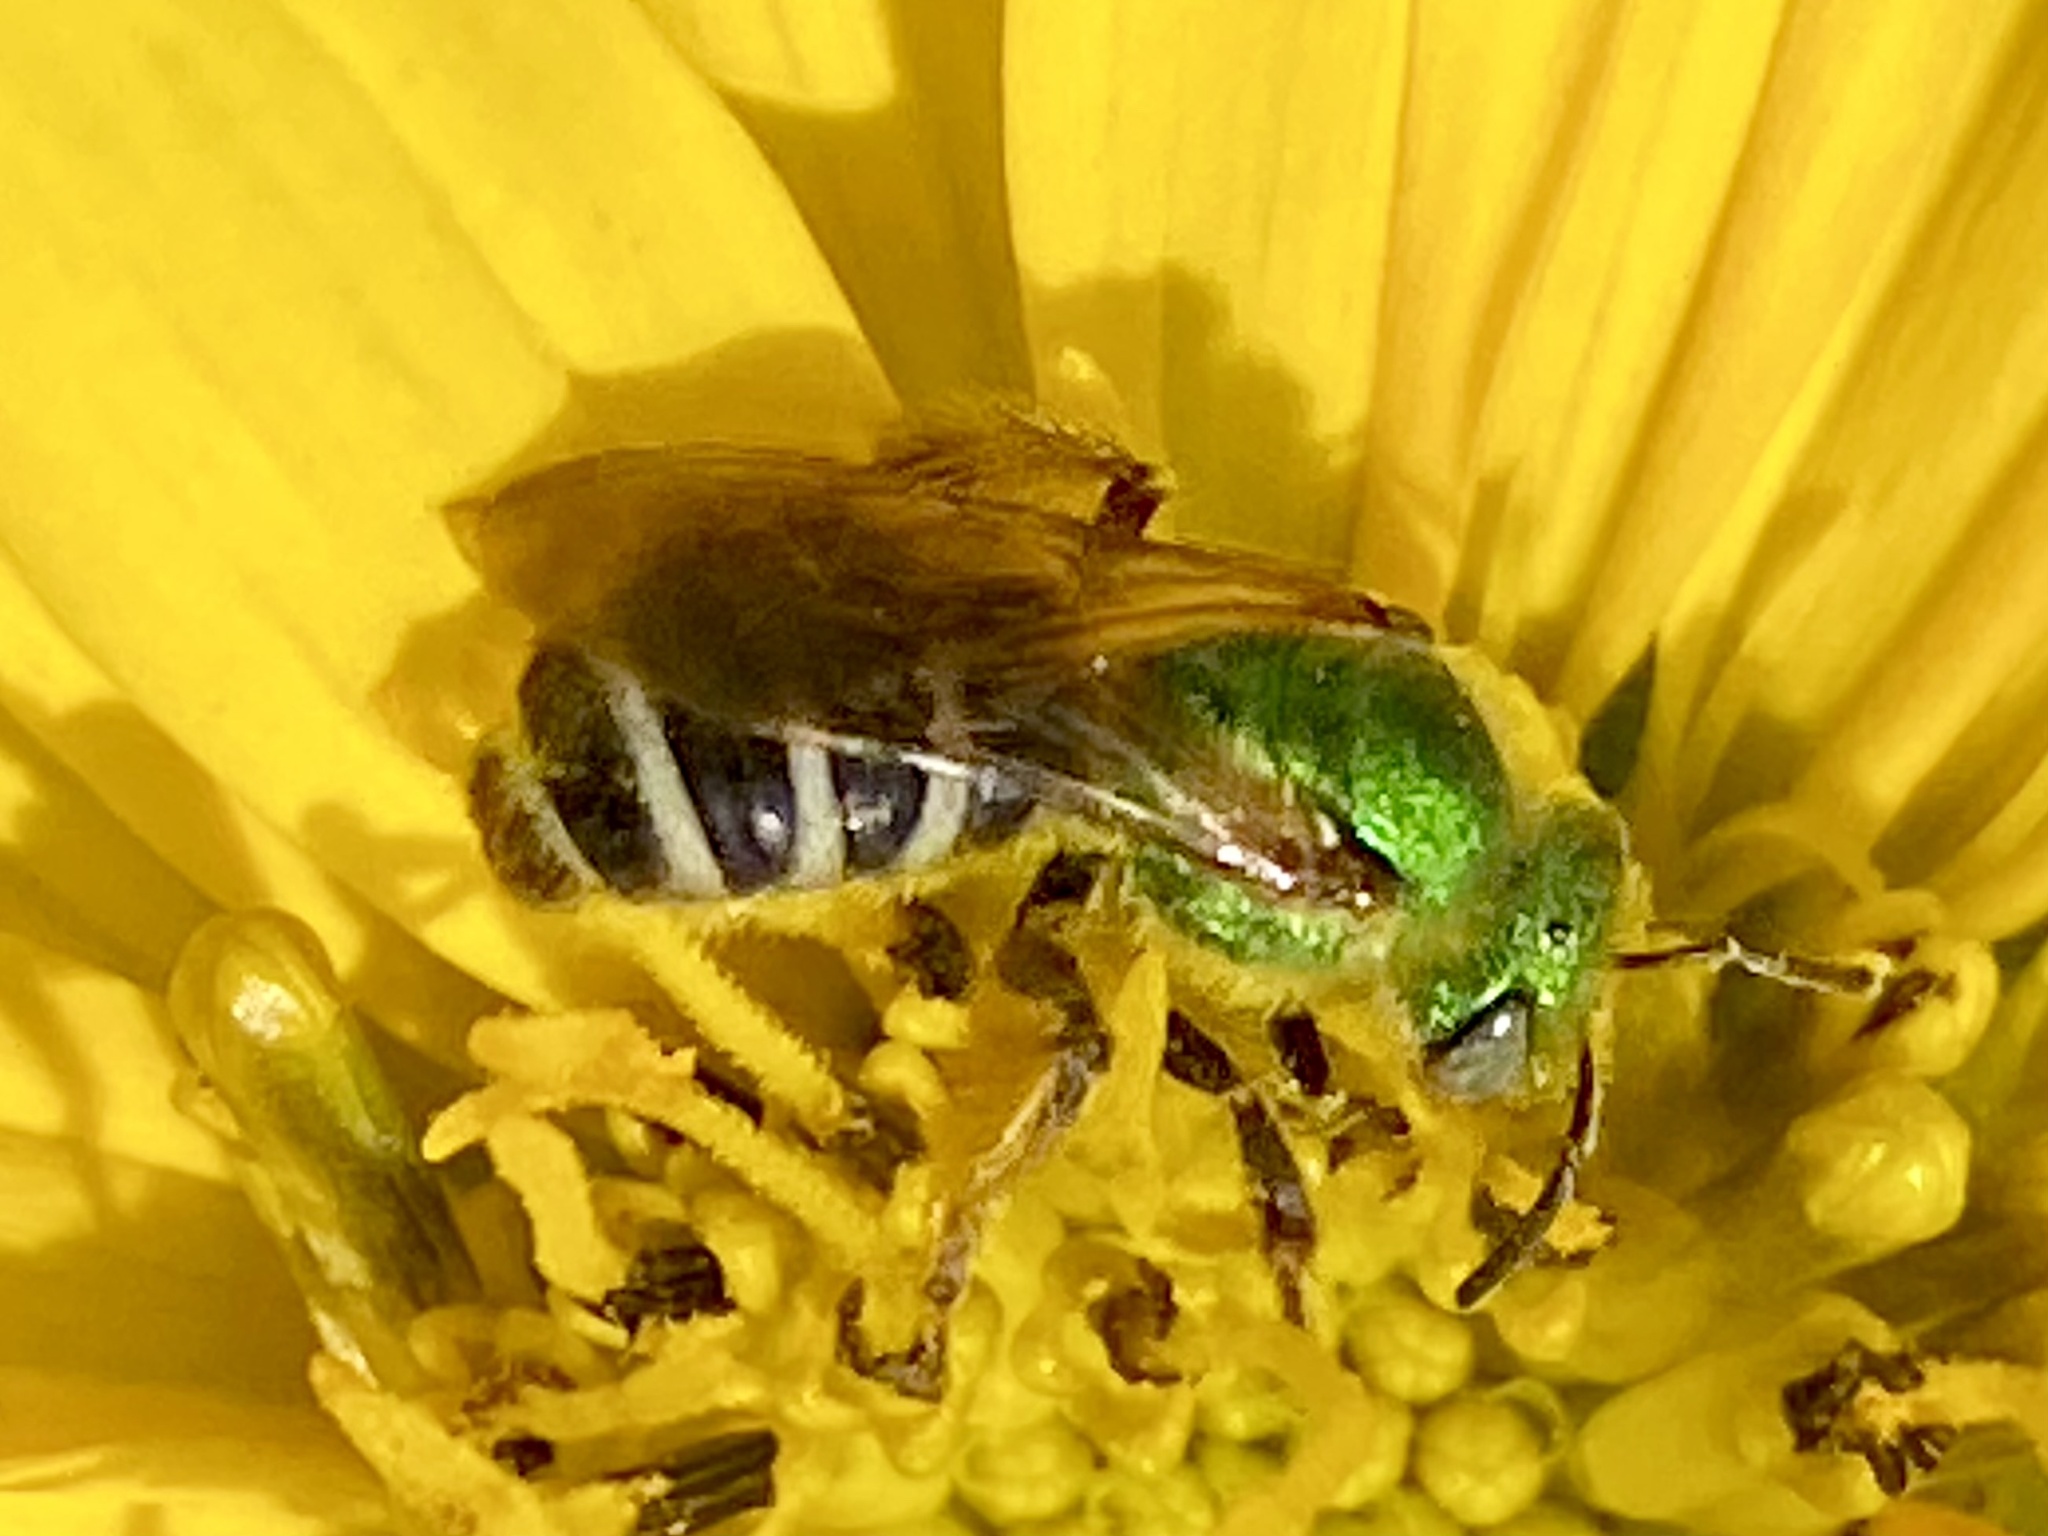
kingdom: Animalia
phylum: Arthropoda
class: Insecta
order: Hymenoptera
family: Halictidae
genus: Agapostemon
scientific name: Agapostemon virescens
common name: Bicolored striped sweat bee
